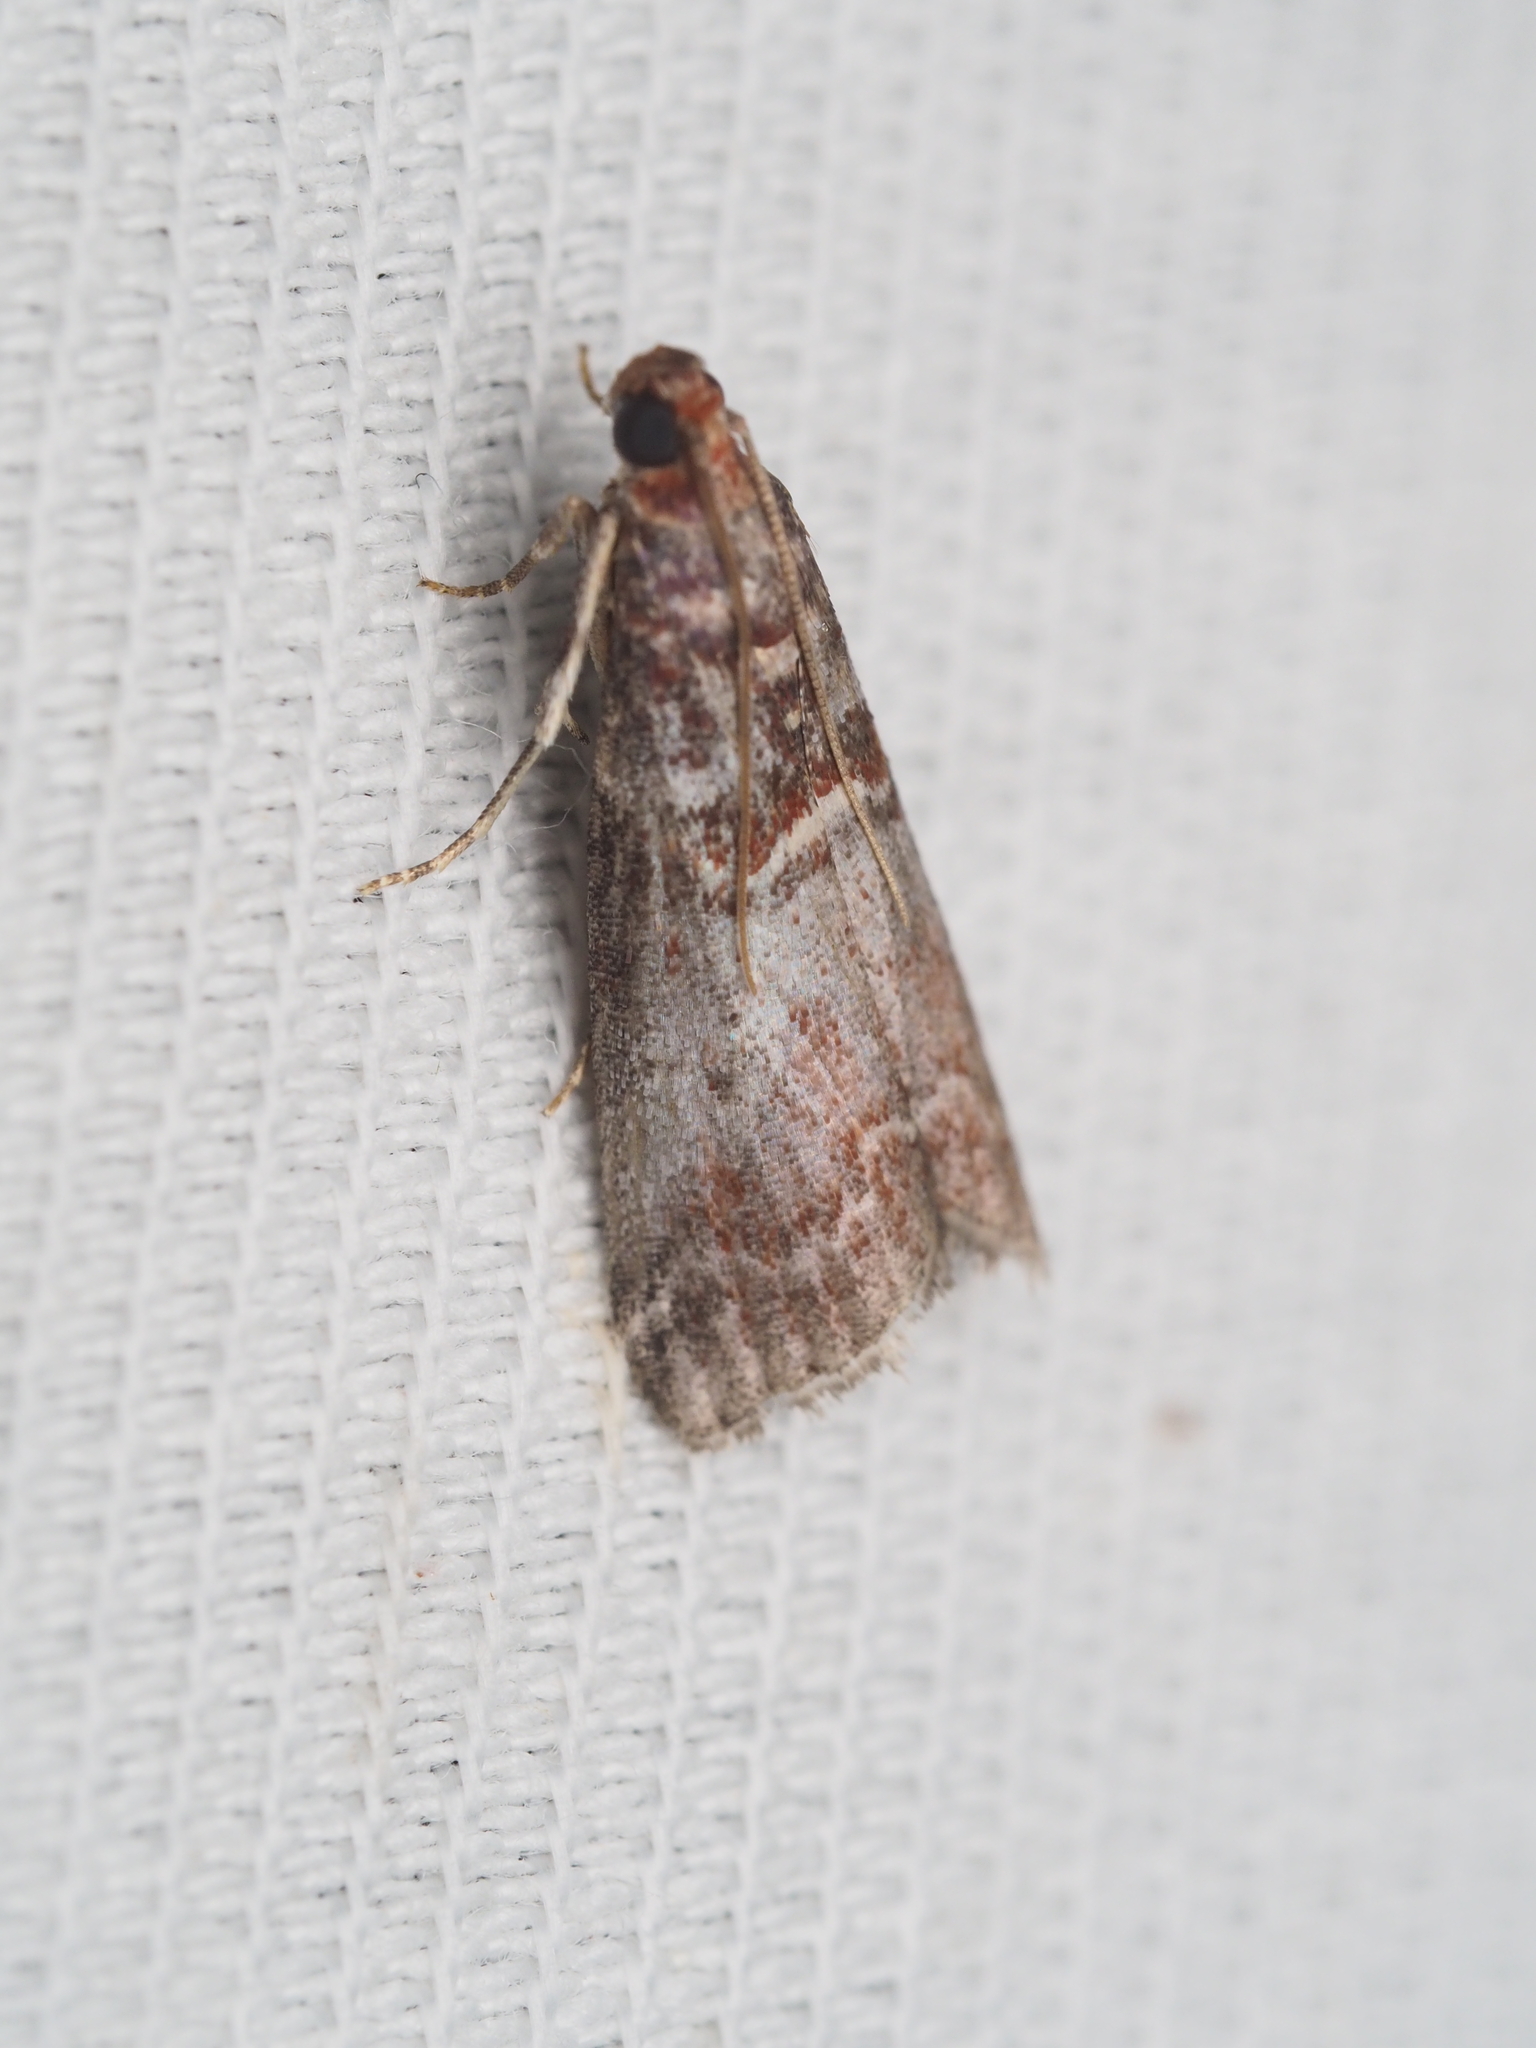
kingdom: Animalia
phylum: Arthropoda
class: Insecta
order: Lepidoptera
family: Pyralidae
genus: Acrobasis
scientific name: Acrobasis advenella
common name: Grey knot-horn
